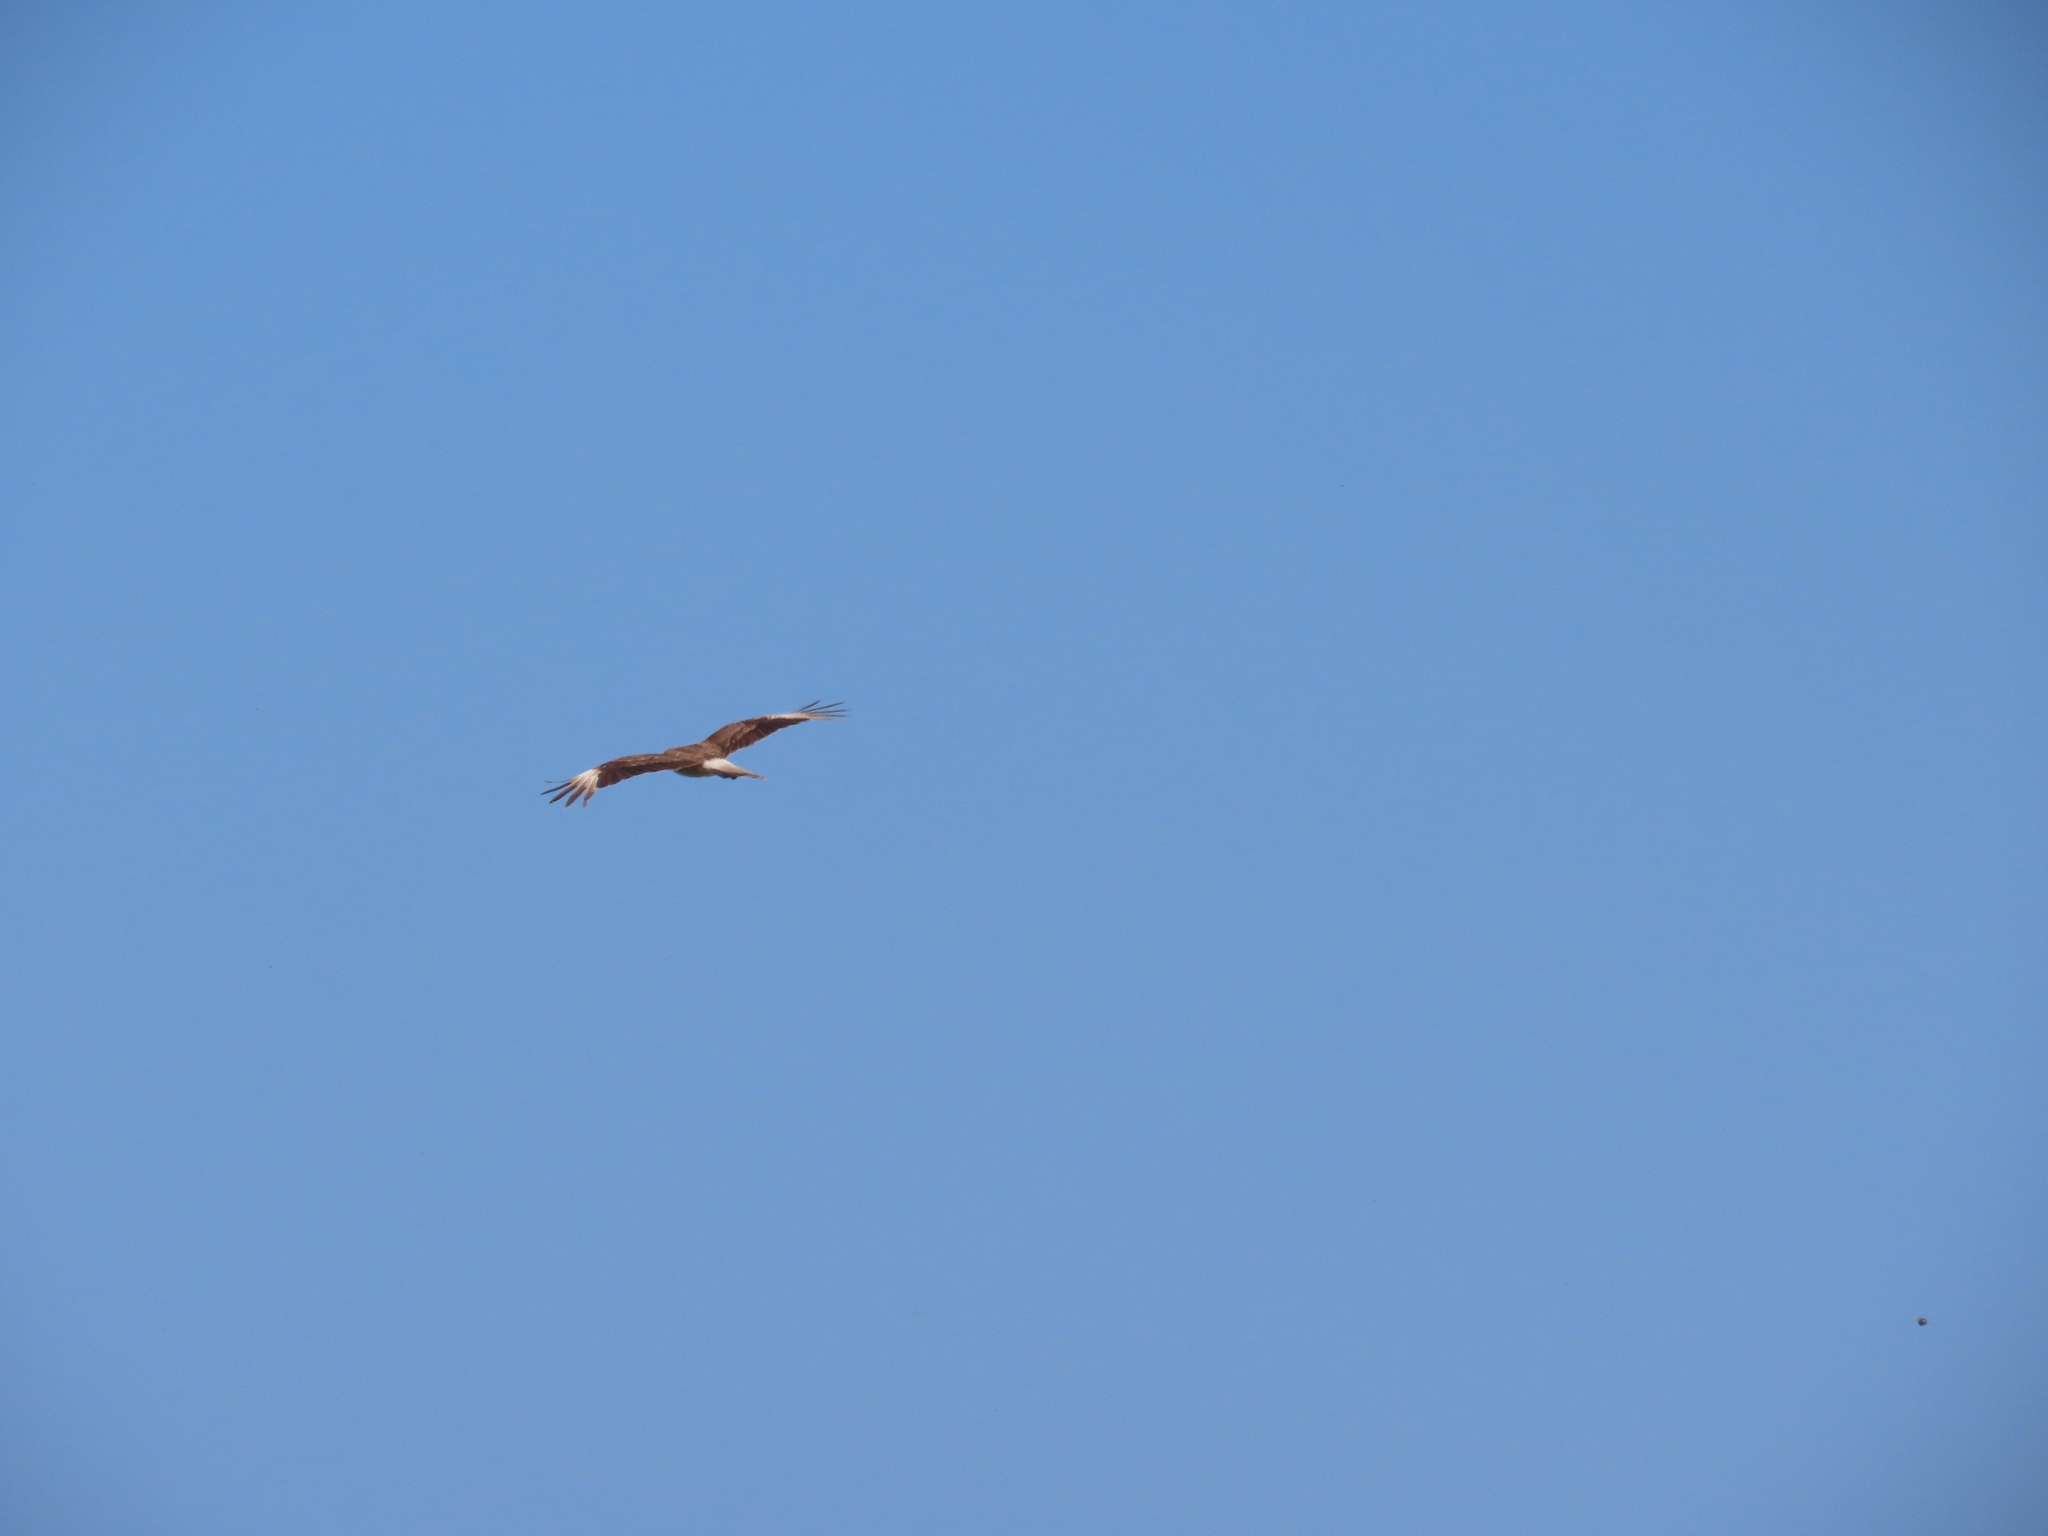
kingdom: Animalia
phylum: Chordata
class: Aves
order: Falconiformes
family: Falconidae
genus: Daptrius
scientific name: Daptrius
